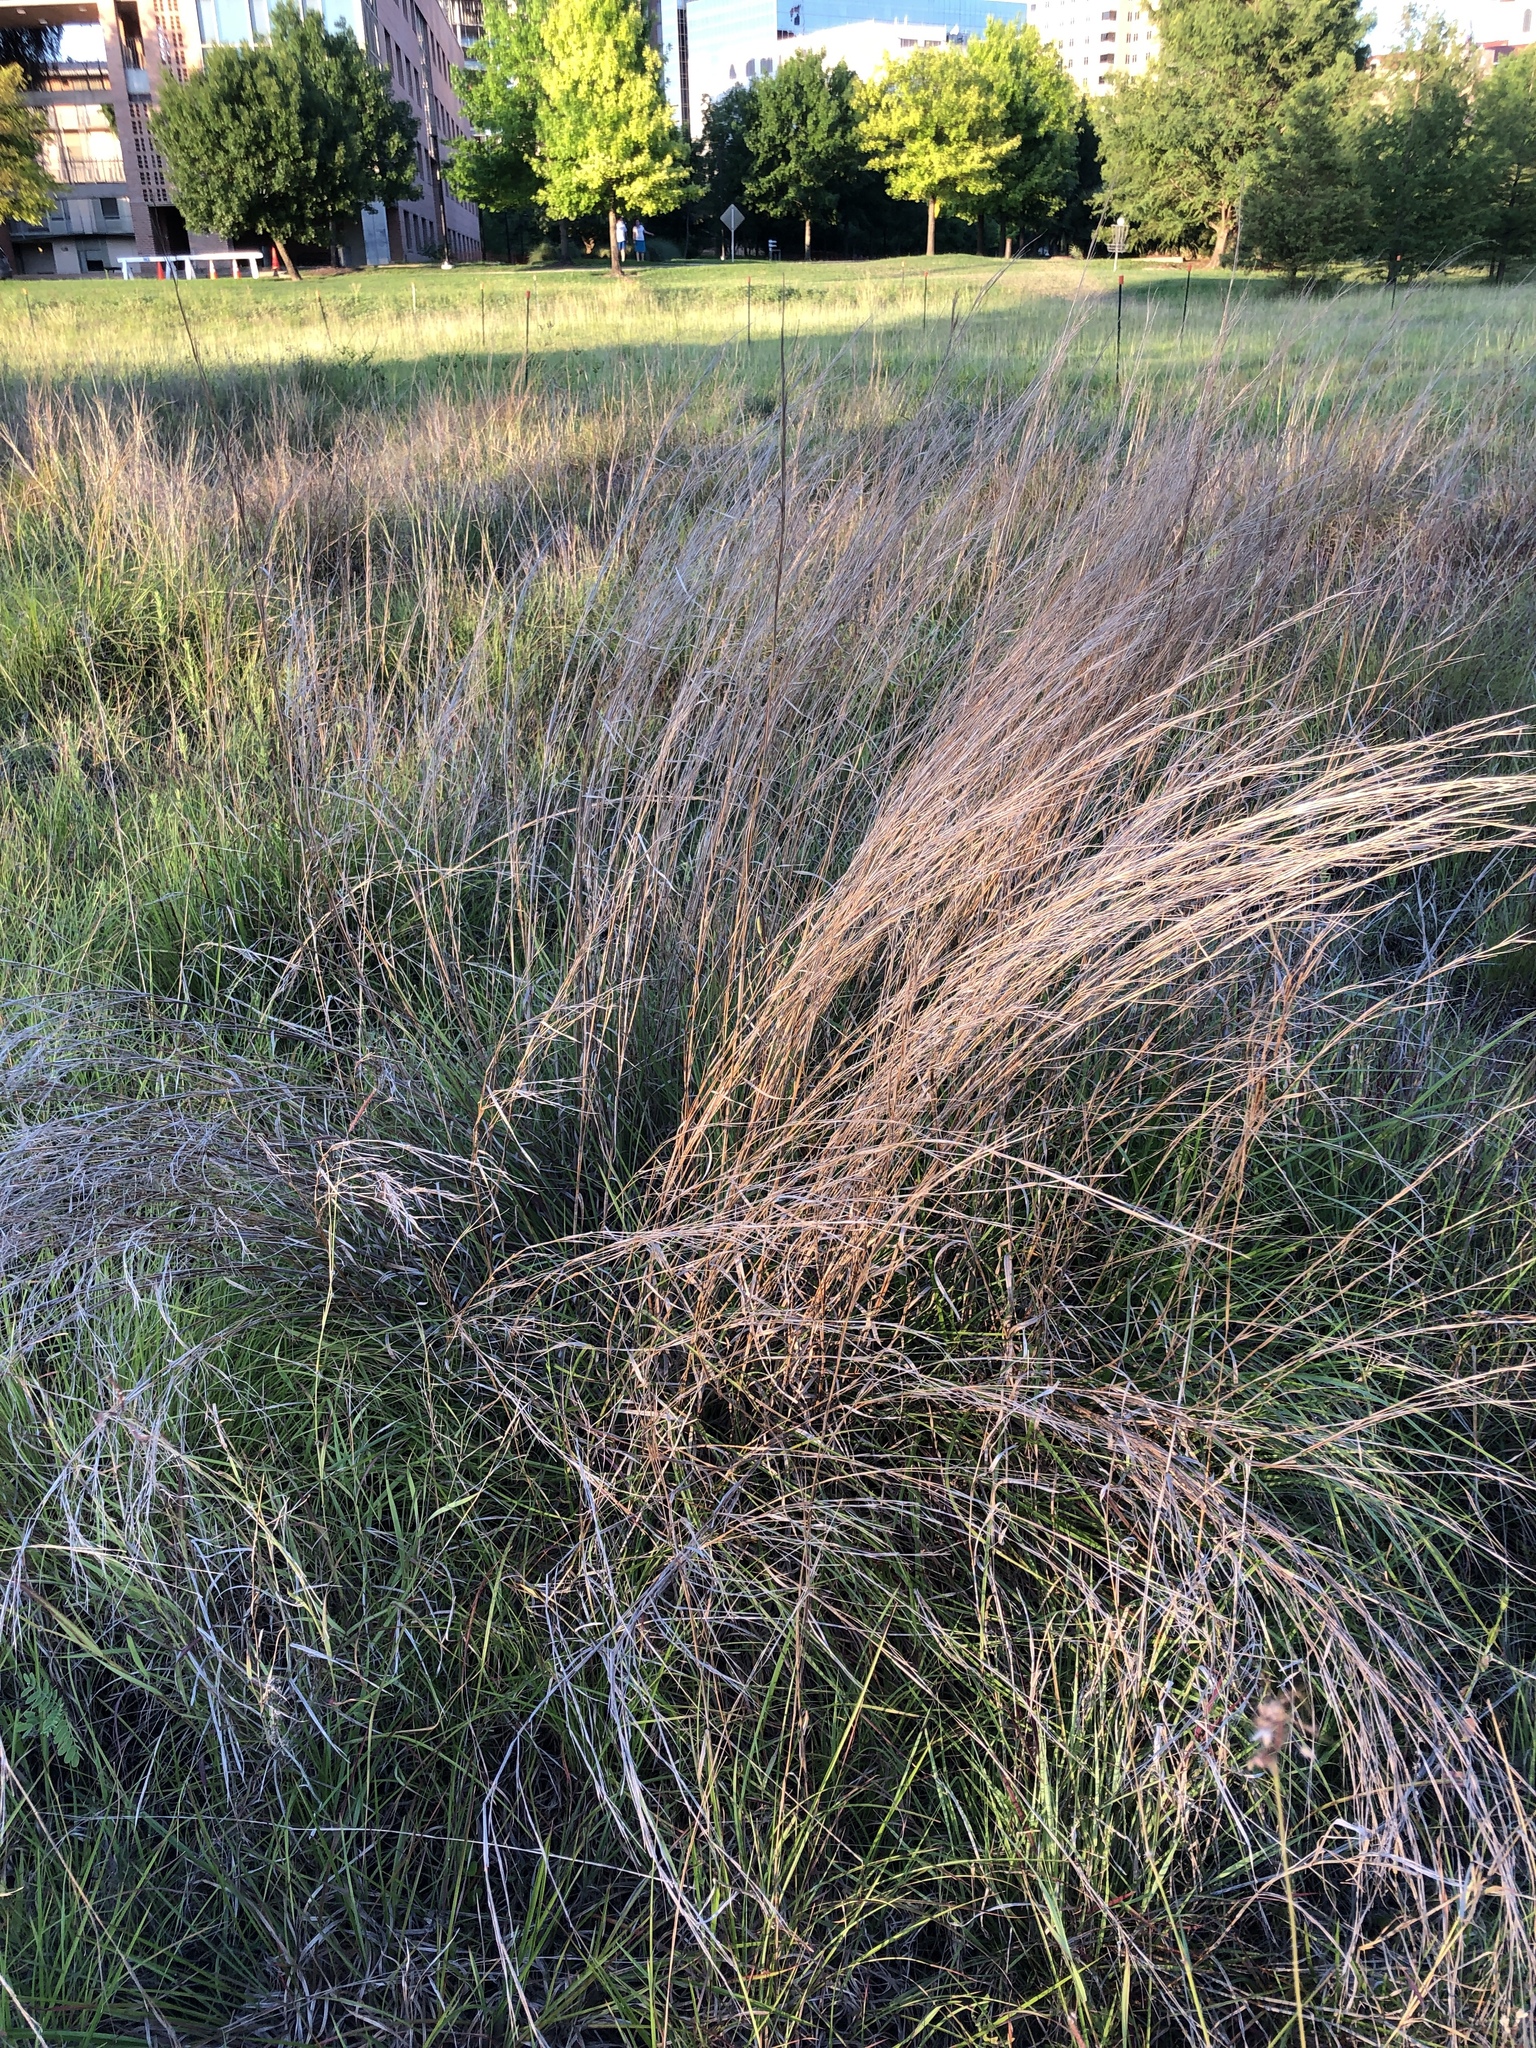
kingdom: Plantae
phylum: Tracheophyta
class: Liliopsida
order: Poales
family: Poaceae
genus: Schizachyrium
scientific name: Schizachyrium scoparium
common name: Little bluestem
